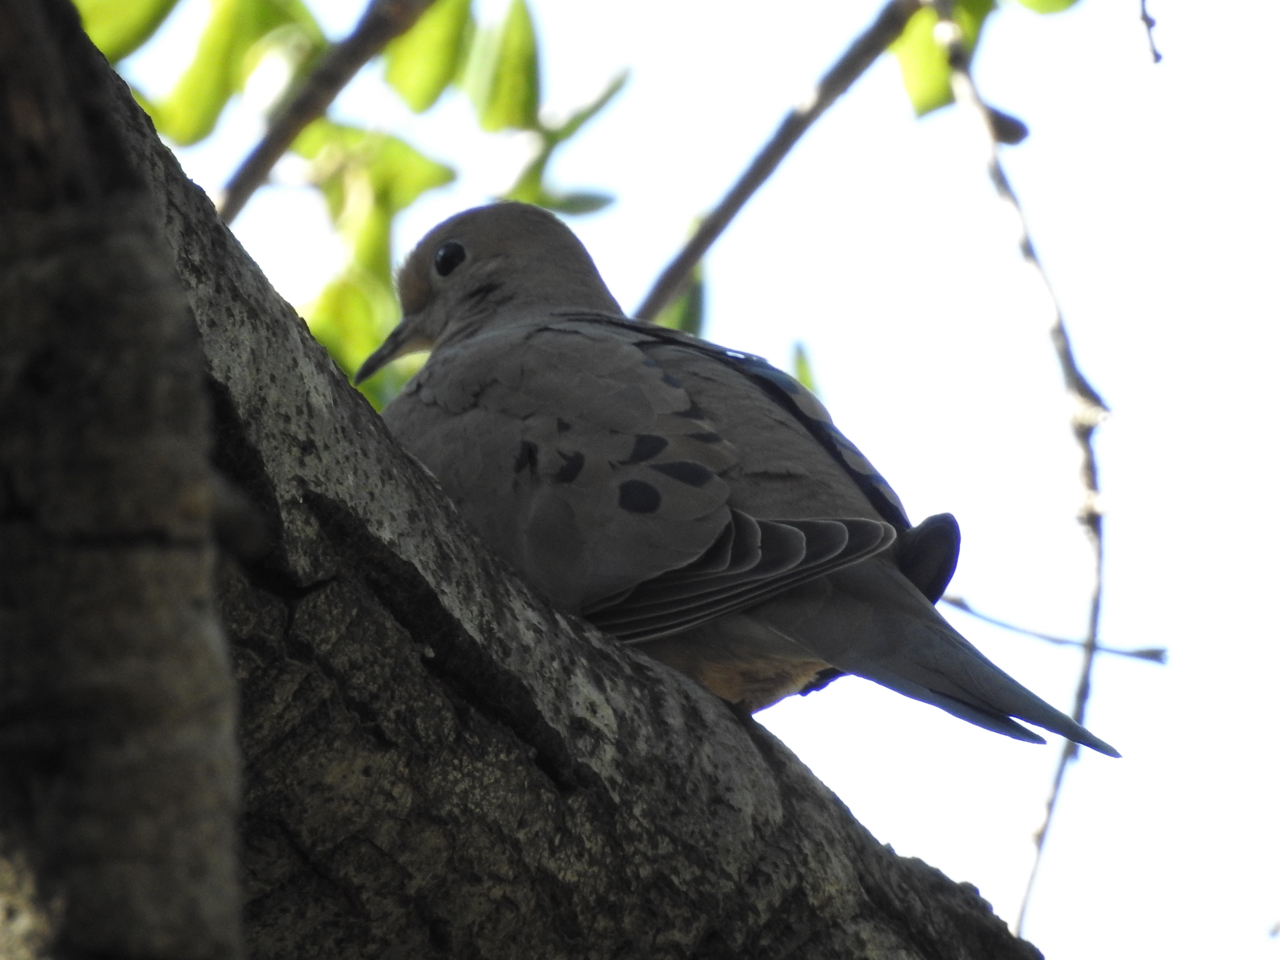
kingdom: Animalia
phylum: Chordata
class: Aves
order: Columbiformes
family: Columbidae
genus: Zenaida
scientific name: Zenaida macroura
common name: Mourning dove
